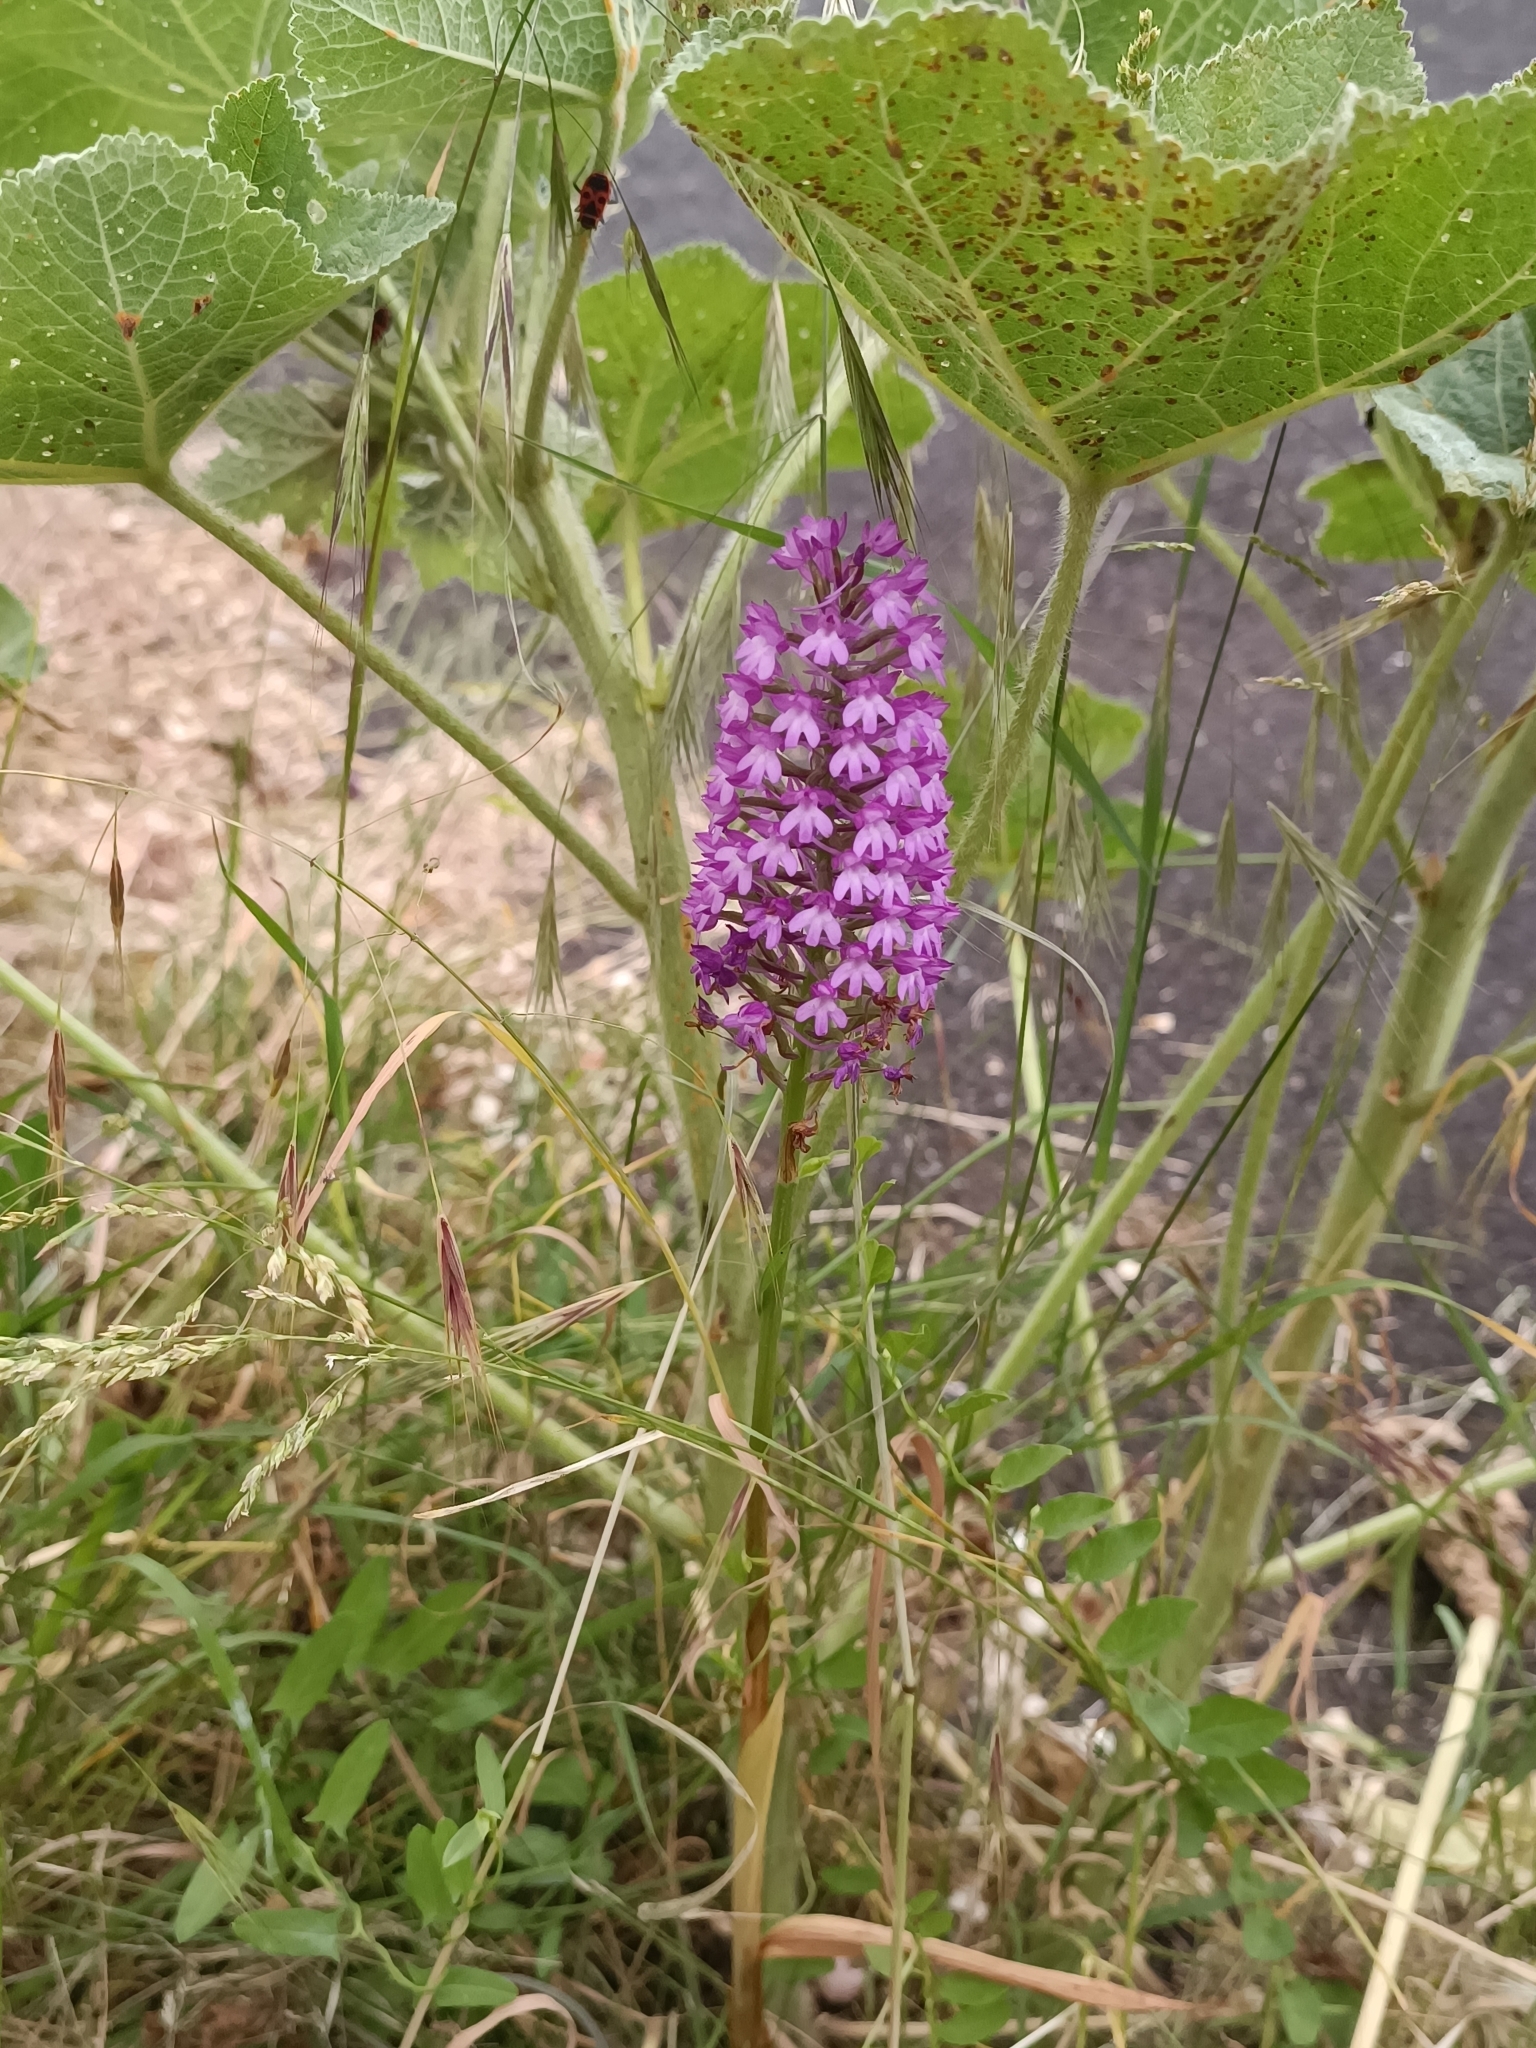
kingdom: Plantae
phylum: Tracheophyta
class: Liliopsida
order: Asparagales
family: Orchidaceae
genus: Anacamptis
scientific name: Anacamptis pyramidalis
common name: Pyramidal orchid
